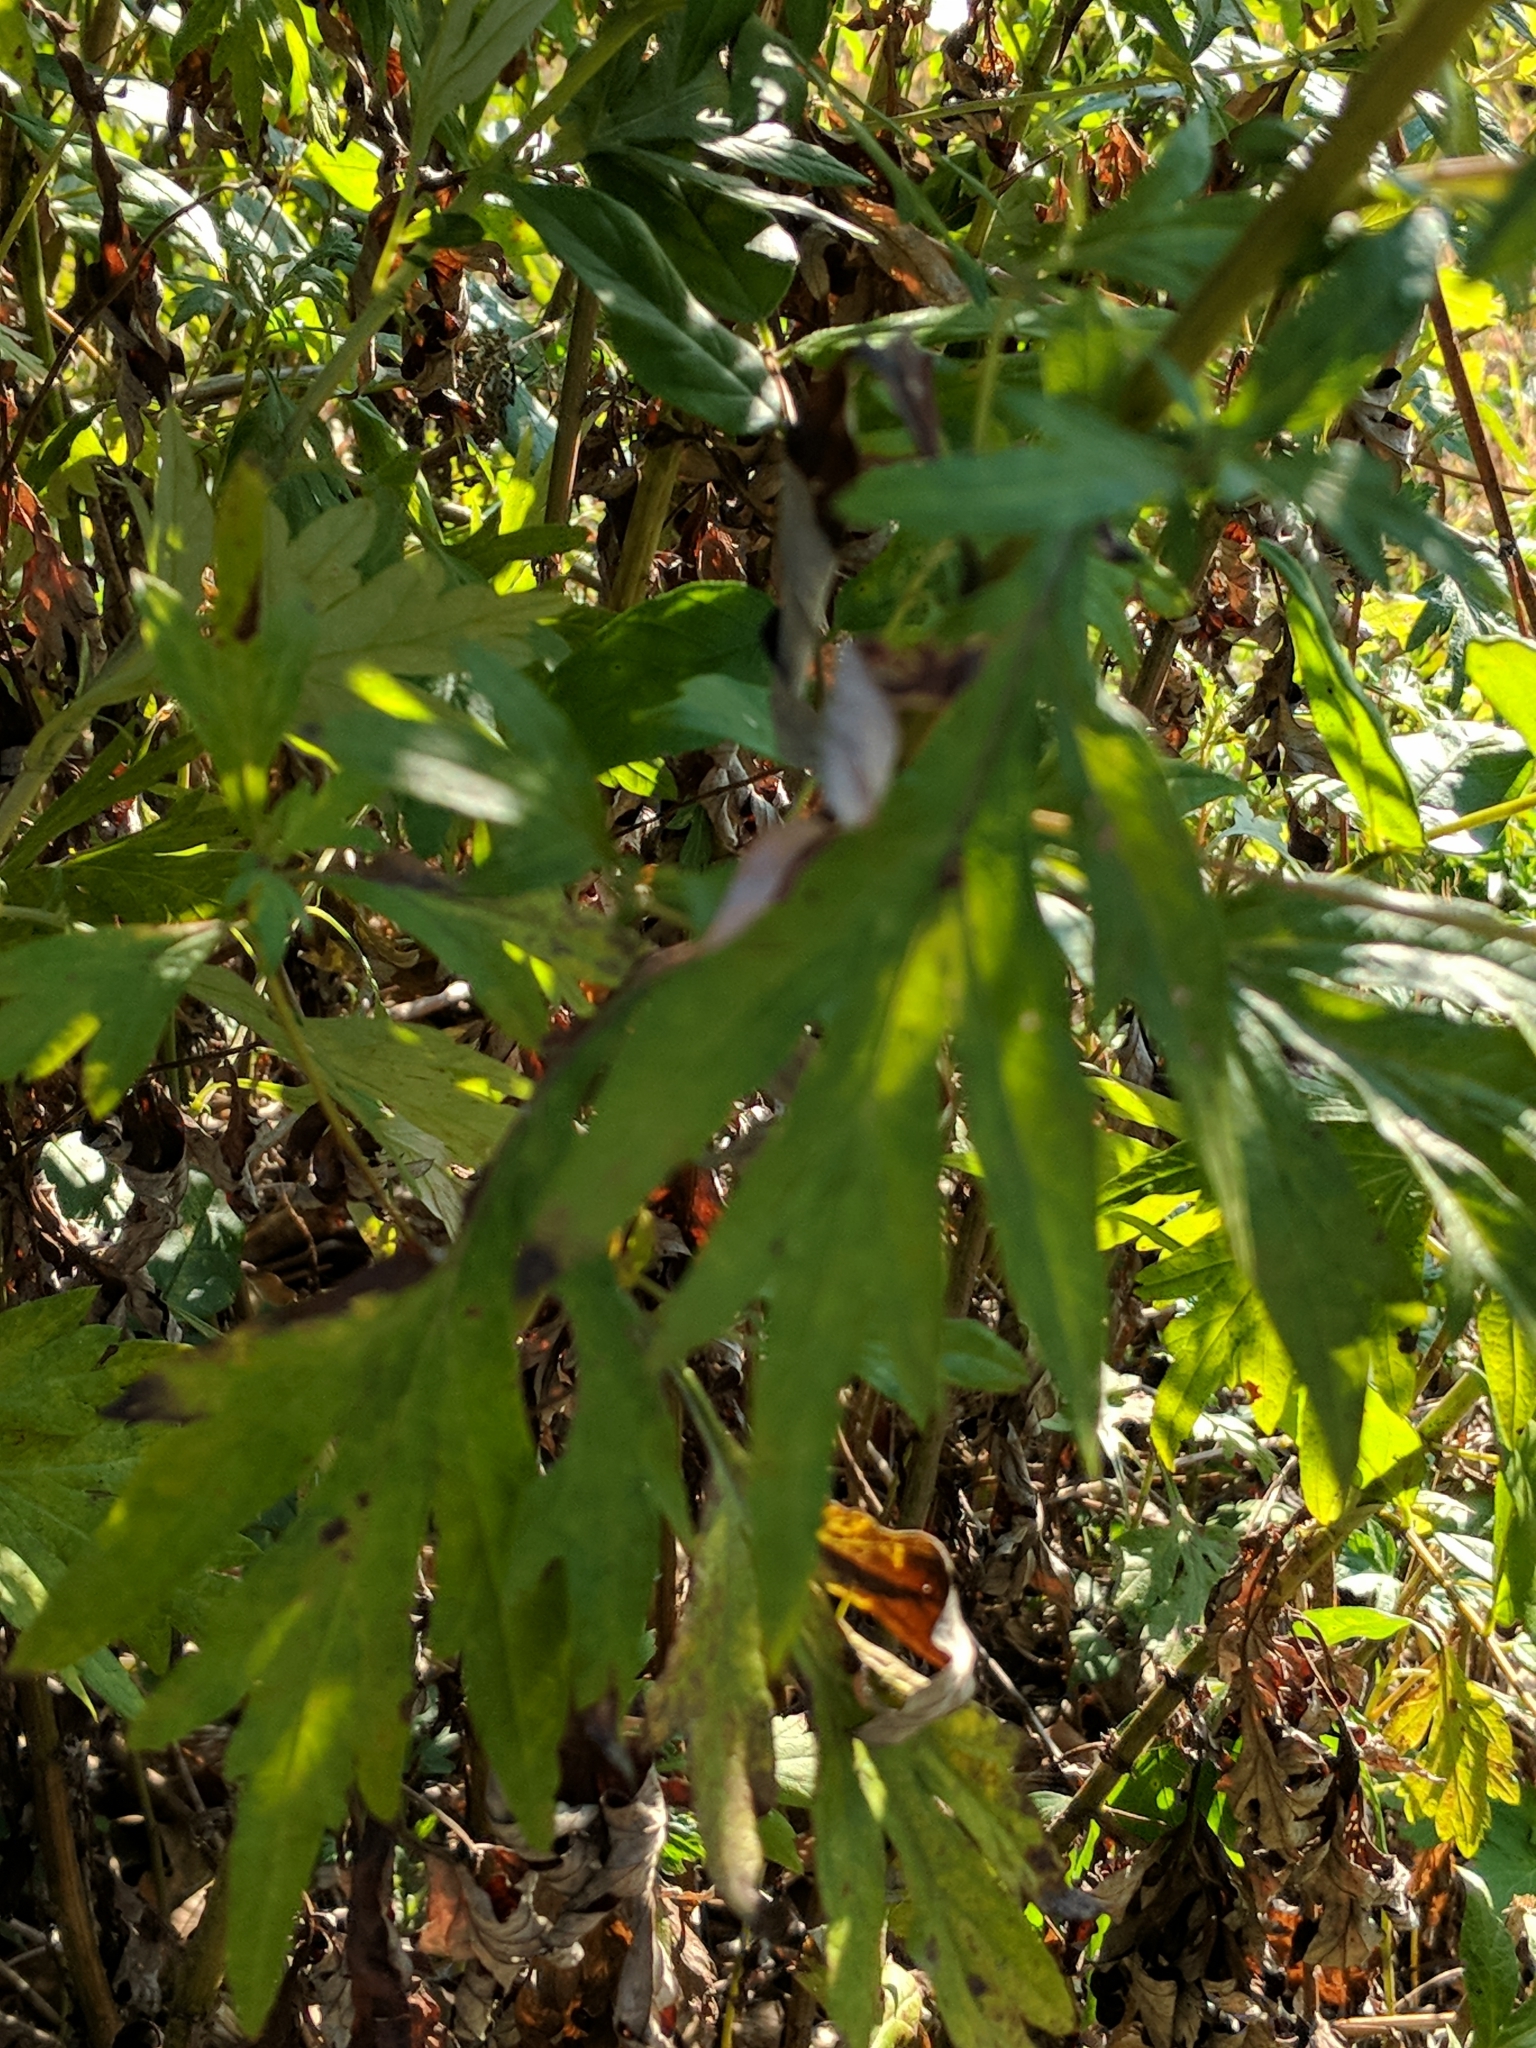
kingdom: Plantae
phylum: Tracheophyta
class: Magnoliopsida
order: Asterales
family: Asteraceae
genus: Artemisia
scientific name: Artemisia vulgaris
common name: Mugwort
